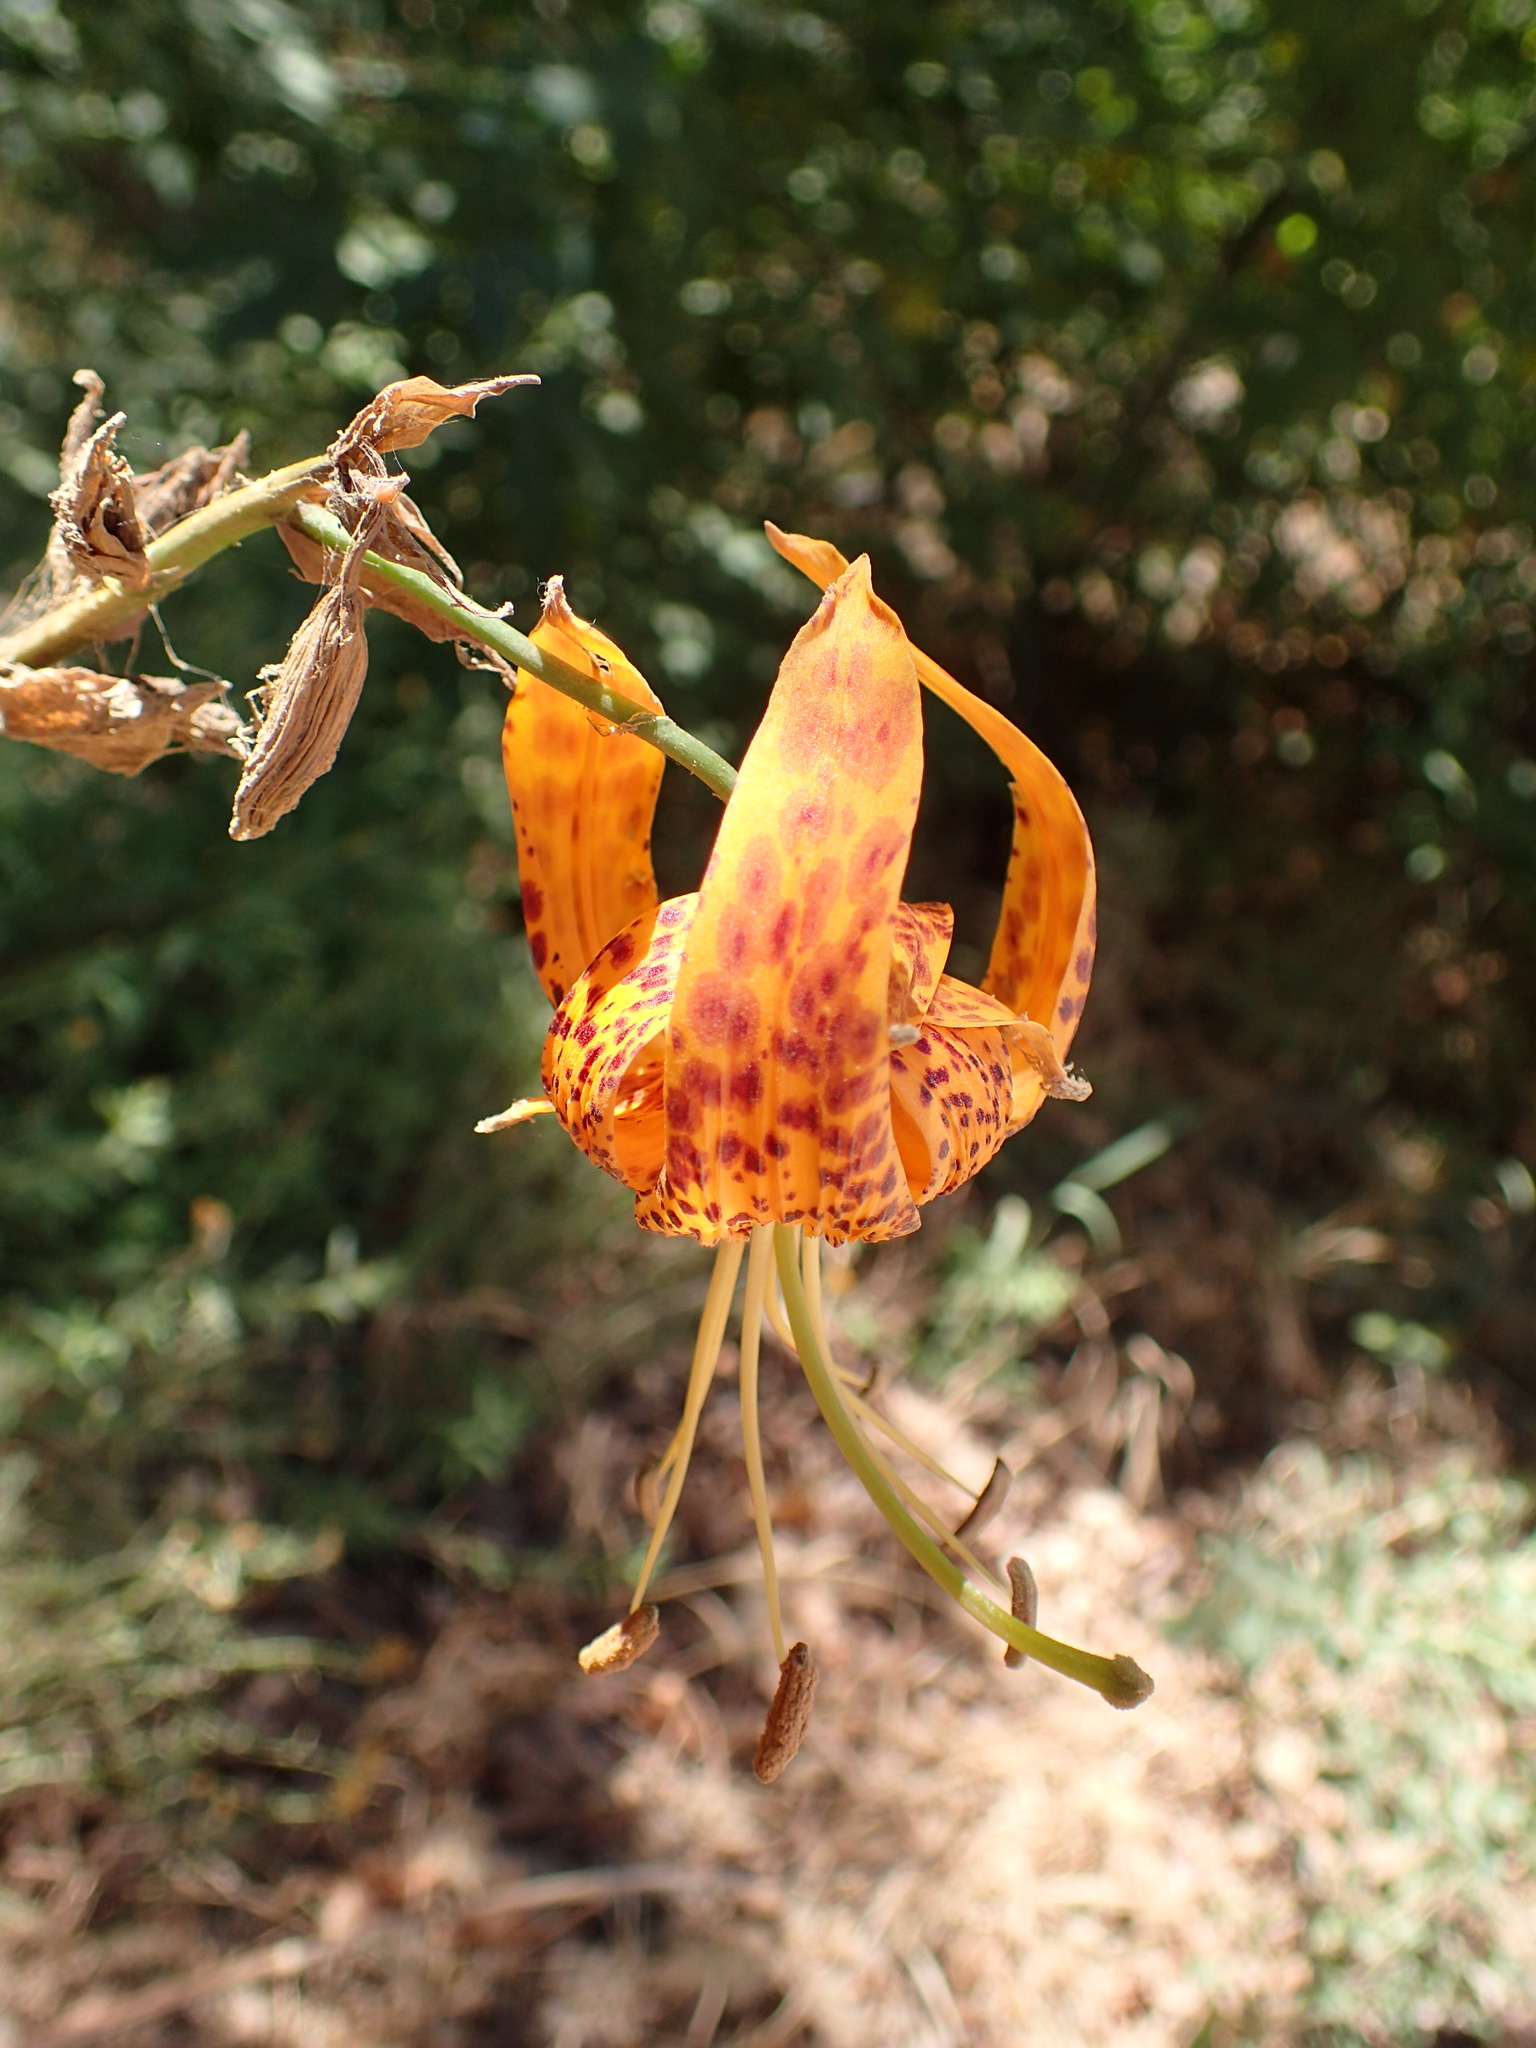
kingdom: Plantae
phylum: Tracheophyta
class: Liliopsida
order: Liliales
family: Liliaceae
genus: Lilium
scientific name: Lilium humboldtii
